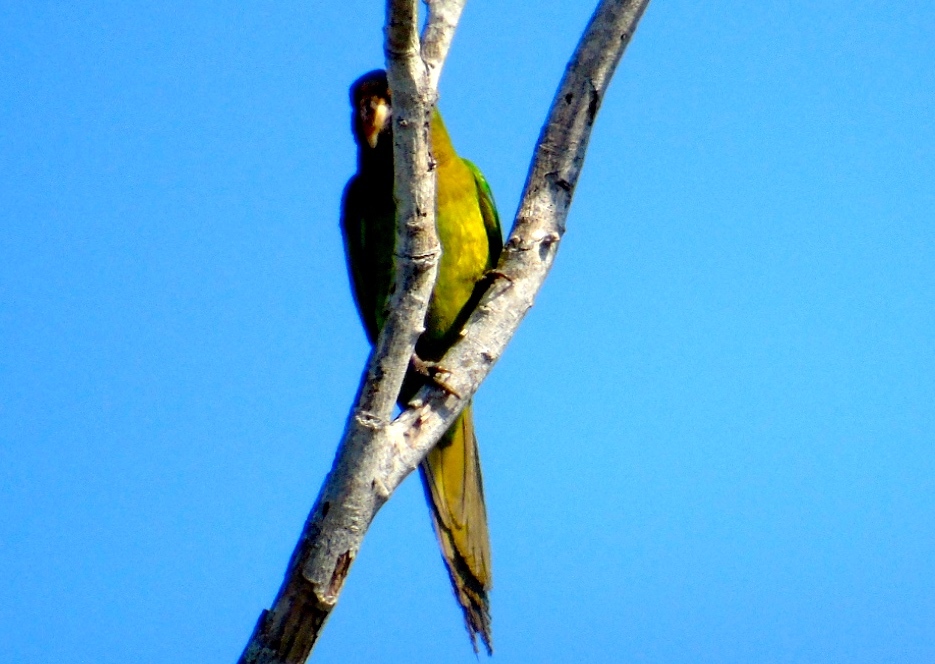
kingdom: Animalia
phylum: Chordata
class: Aves
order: Psittaciformes
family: Psittacidae
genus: Aratinga
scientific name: Aratinga canicularis
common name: Orange-fronted parakeet
